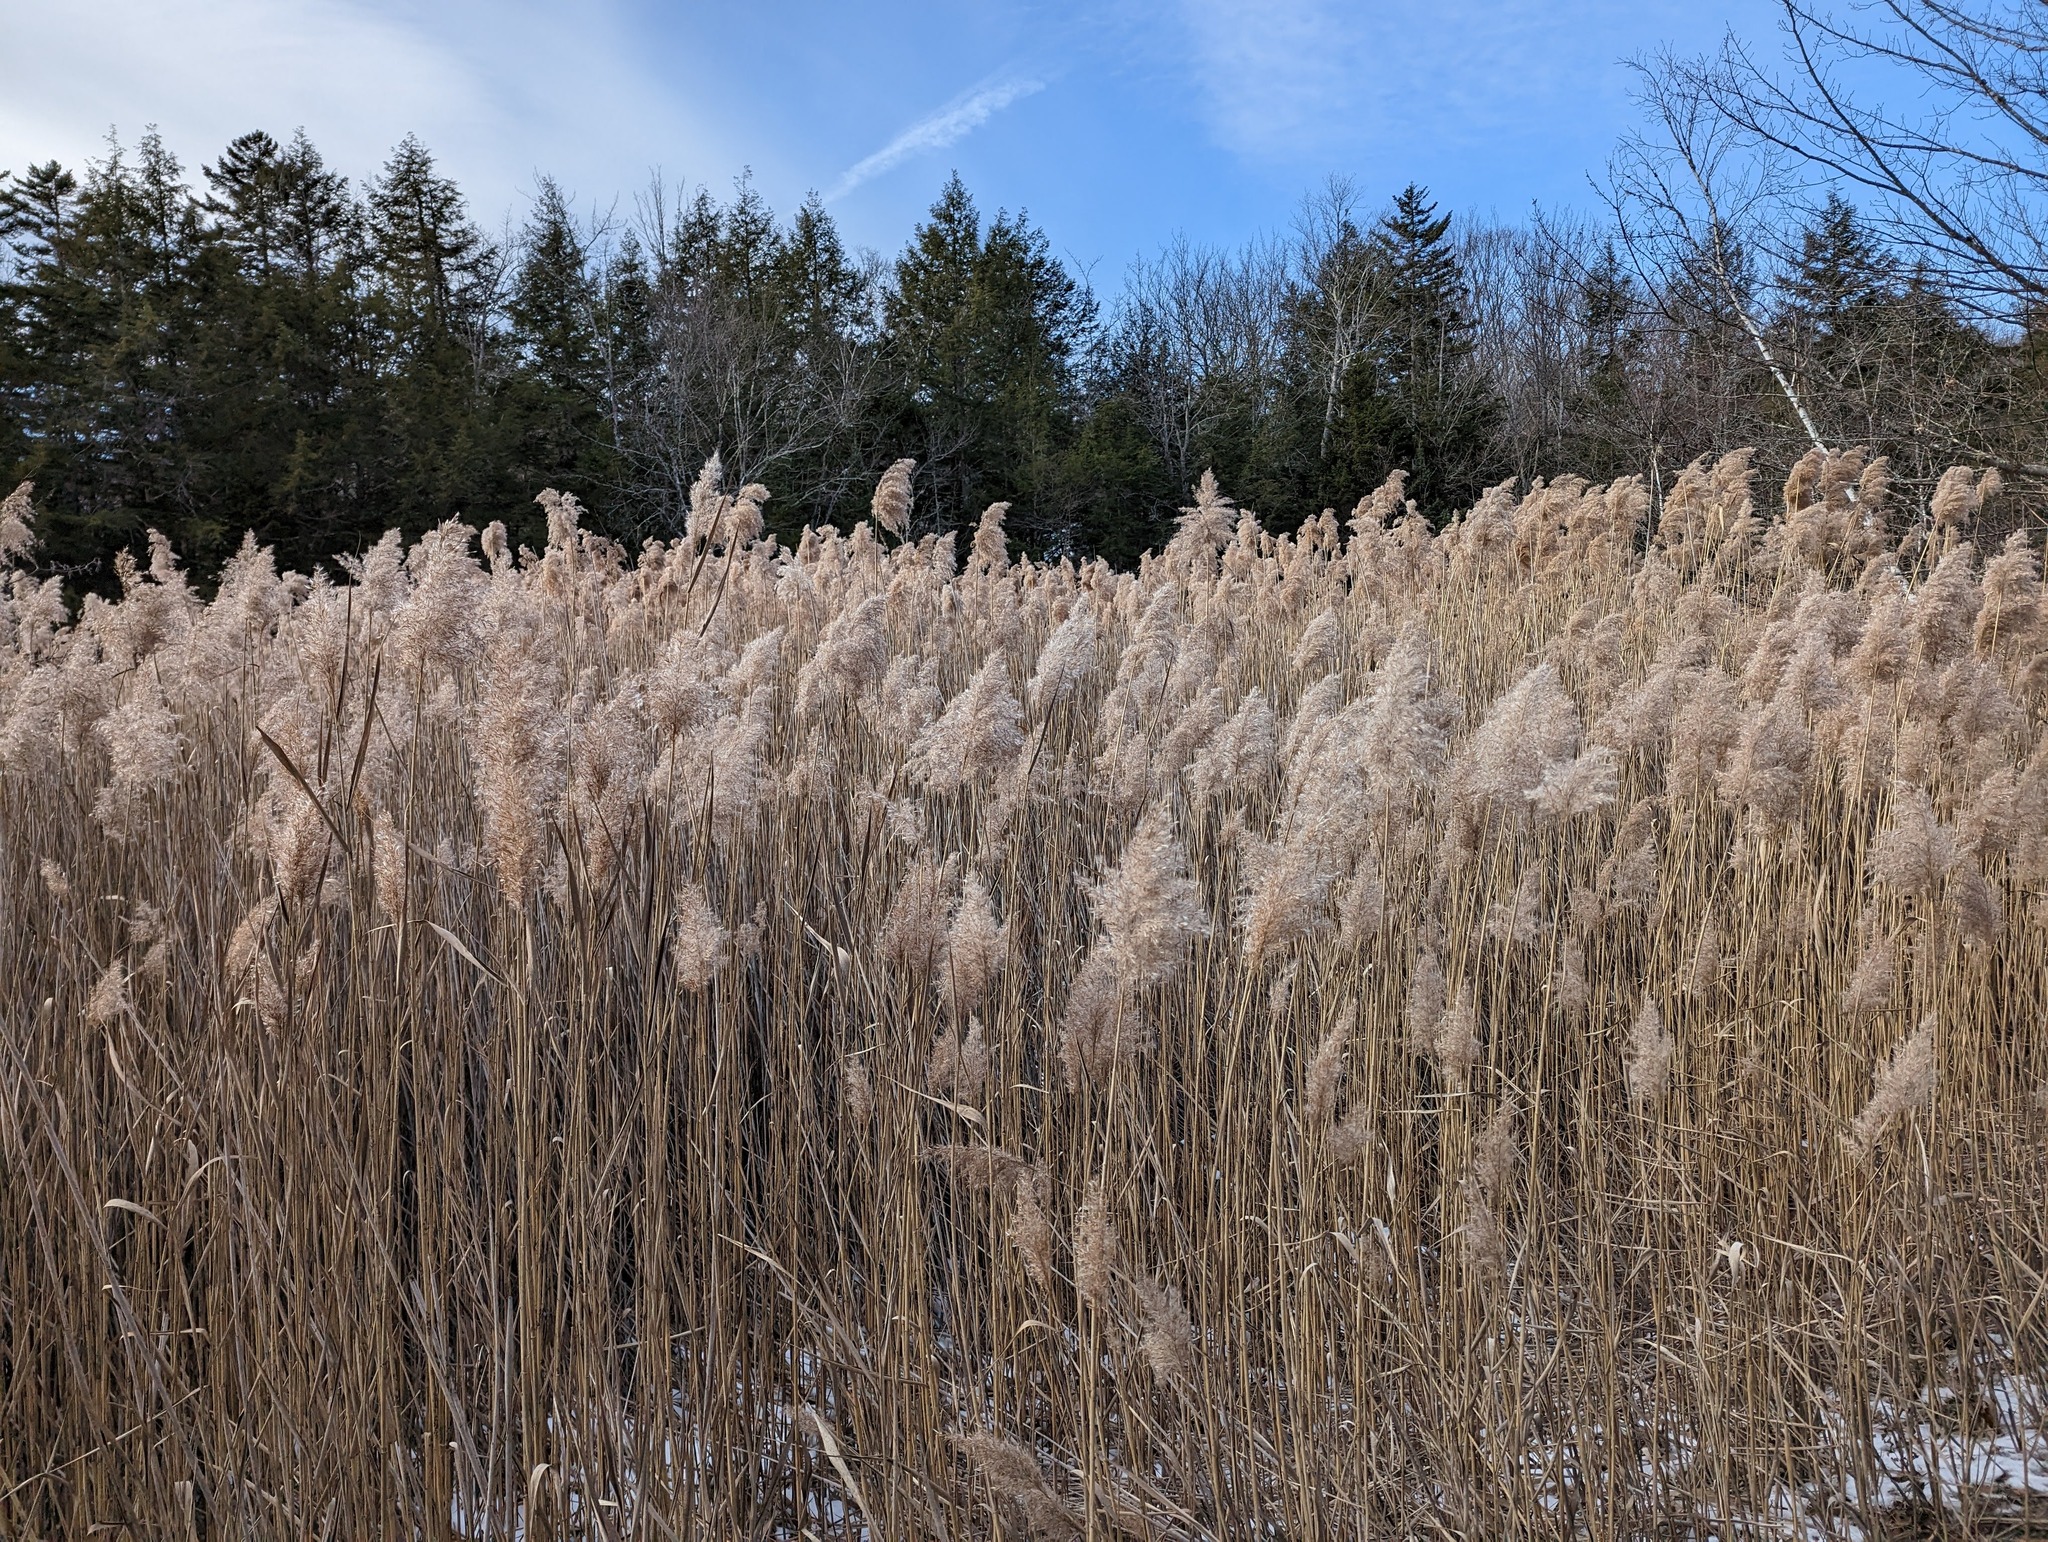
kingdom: Plantae
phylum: Tracheophyta
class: Liliopsida
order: Poales
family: Poaceae
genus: Phragmites
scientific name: Phragmites australis
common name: Common reed
